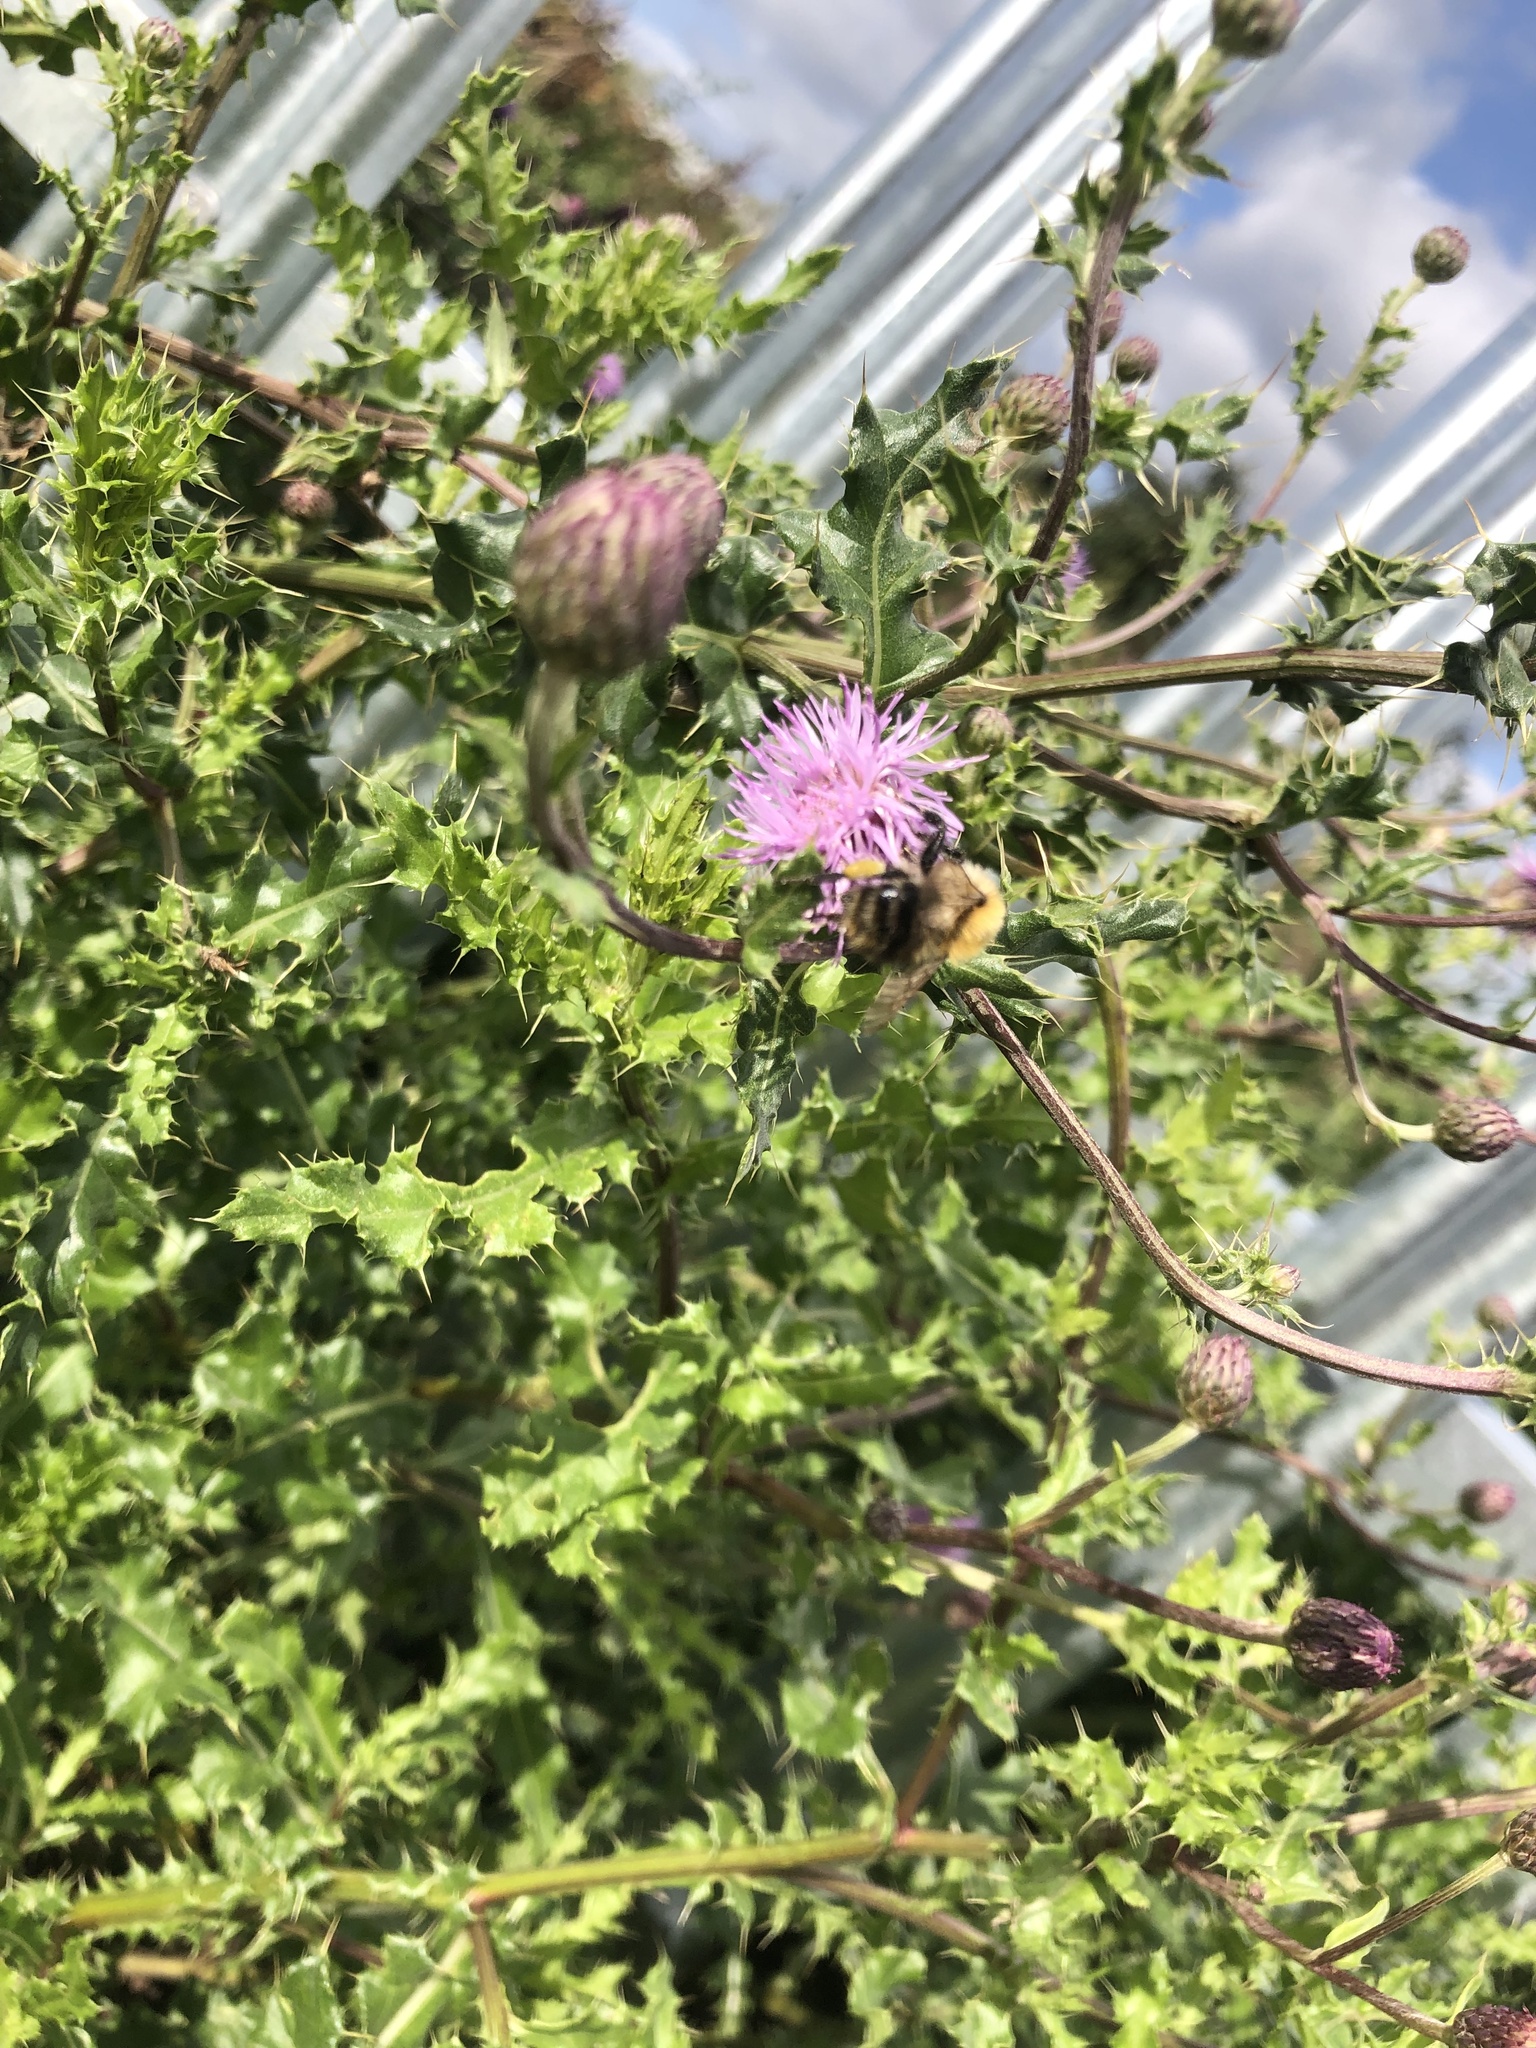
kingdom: Plantae
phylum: Tracheophyta
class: Magnoliopsida
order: Asterales
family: Asteraceae
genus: Cirsium
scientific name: Cirsium arvense
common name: Creeping thistle
